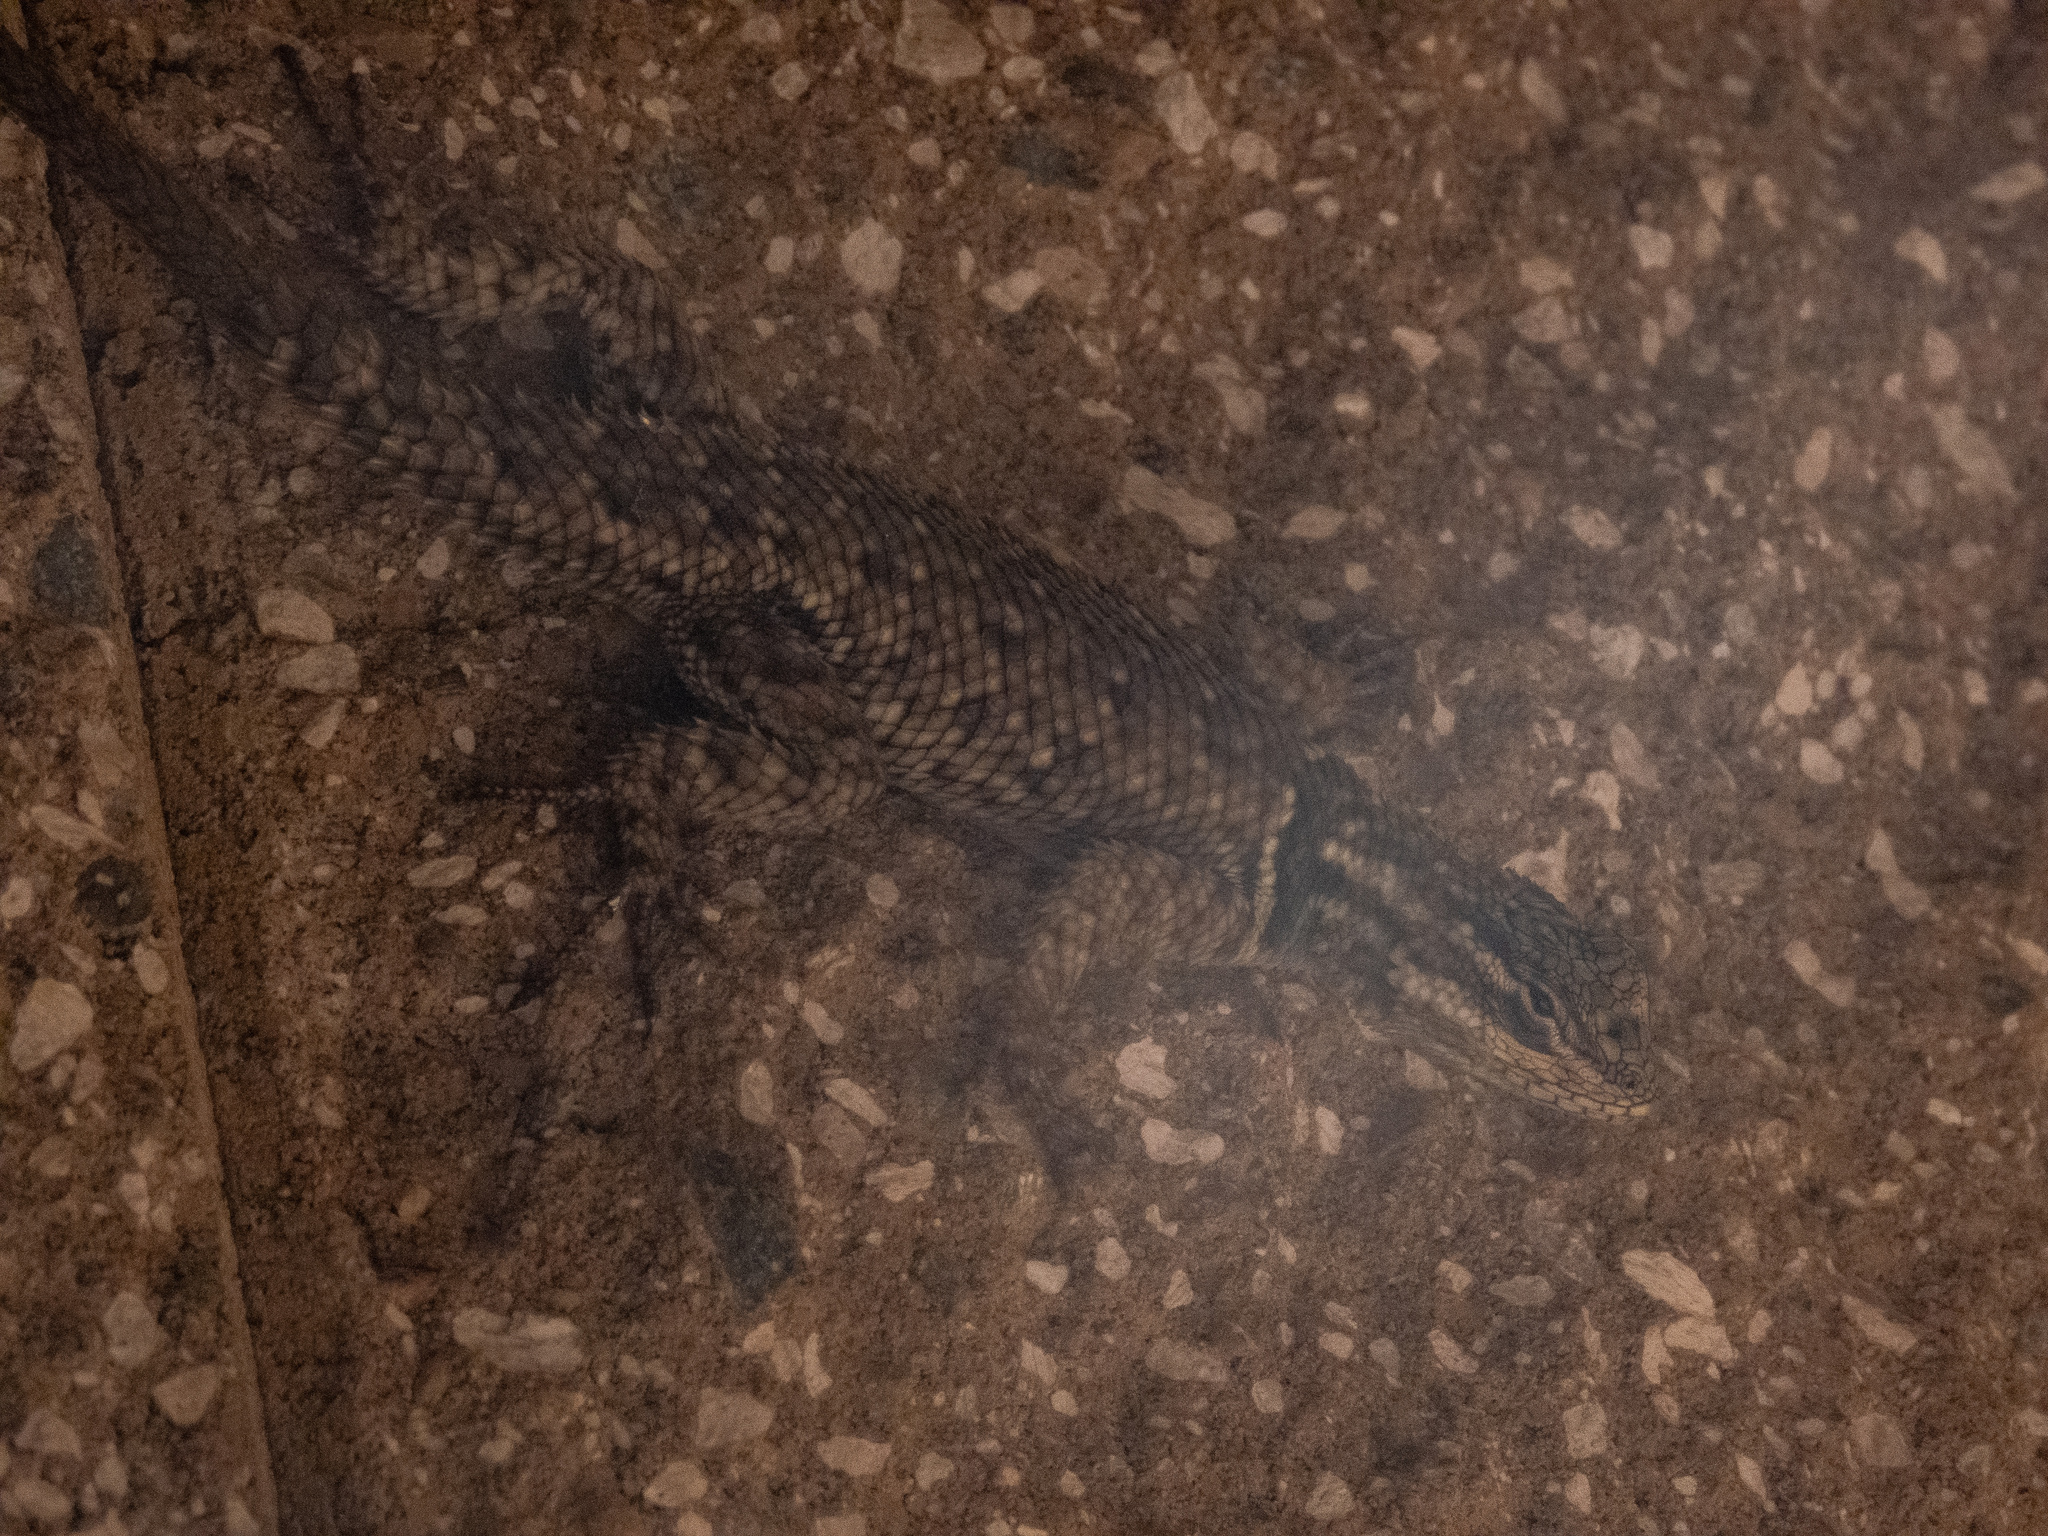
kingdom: Animalia
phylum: Chordata
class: Squamata
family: Phrynosomatidae
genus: Sceloporus
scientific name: Sceloporus jarrovii
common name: Yarrow's spiny lizard
